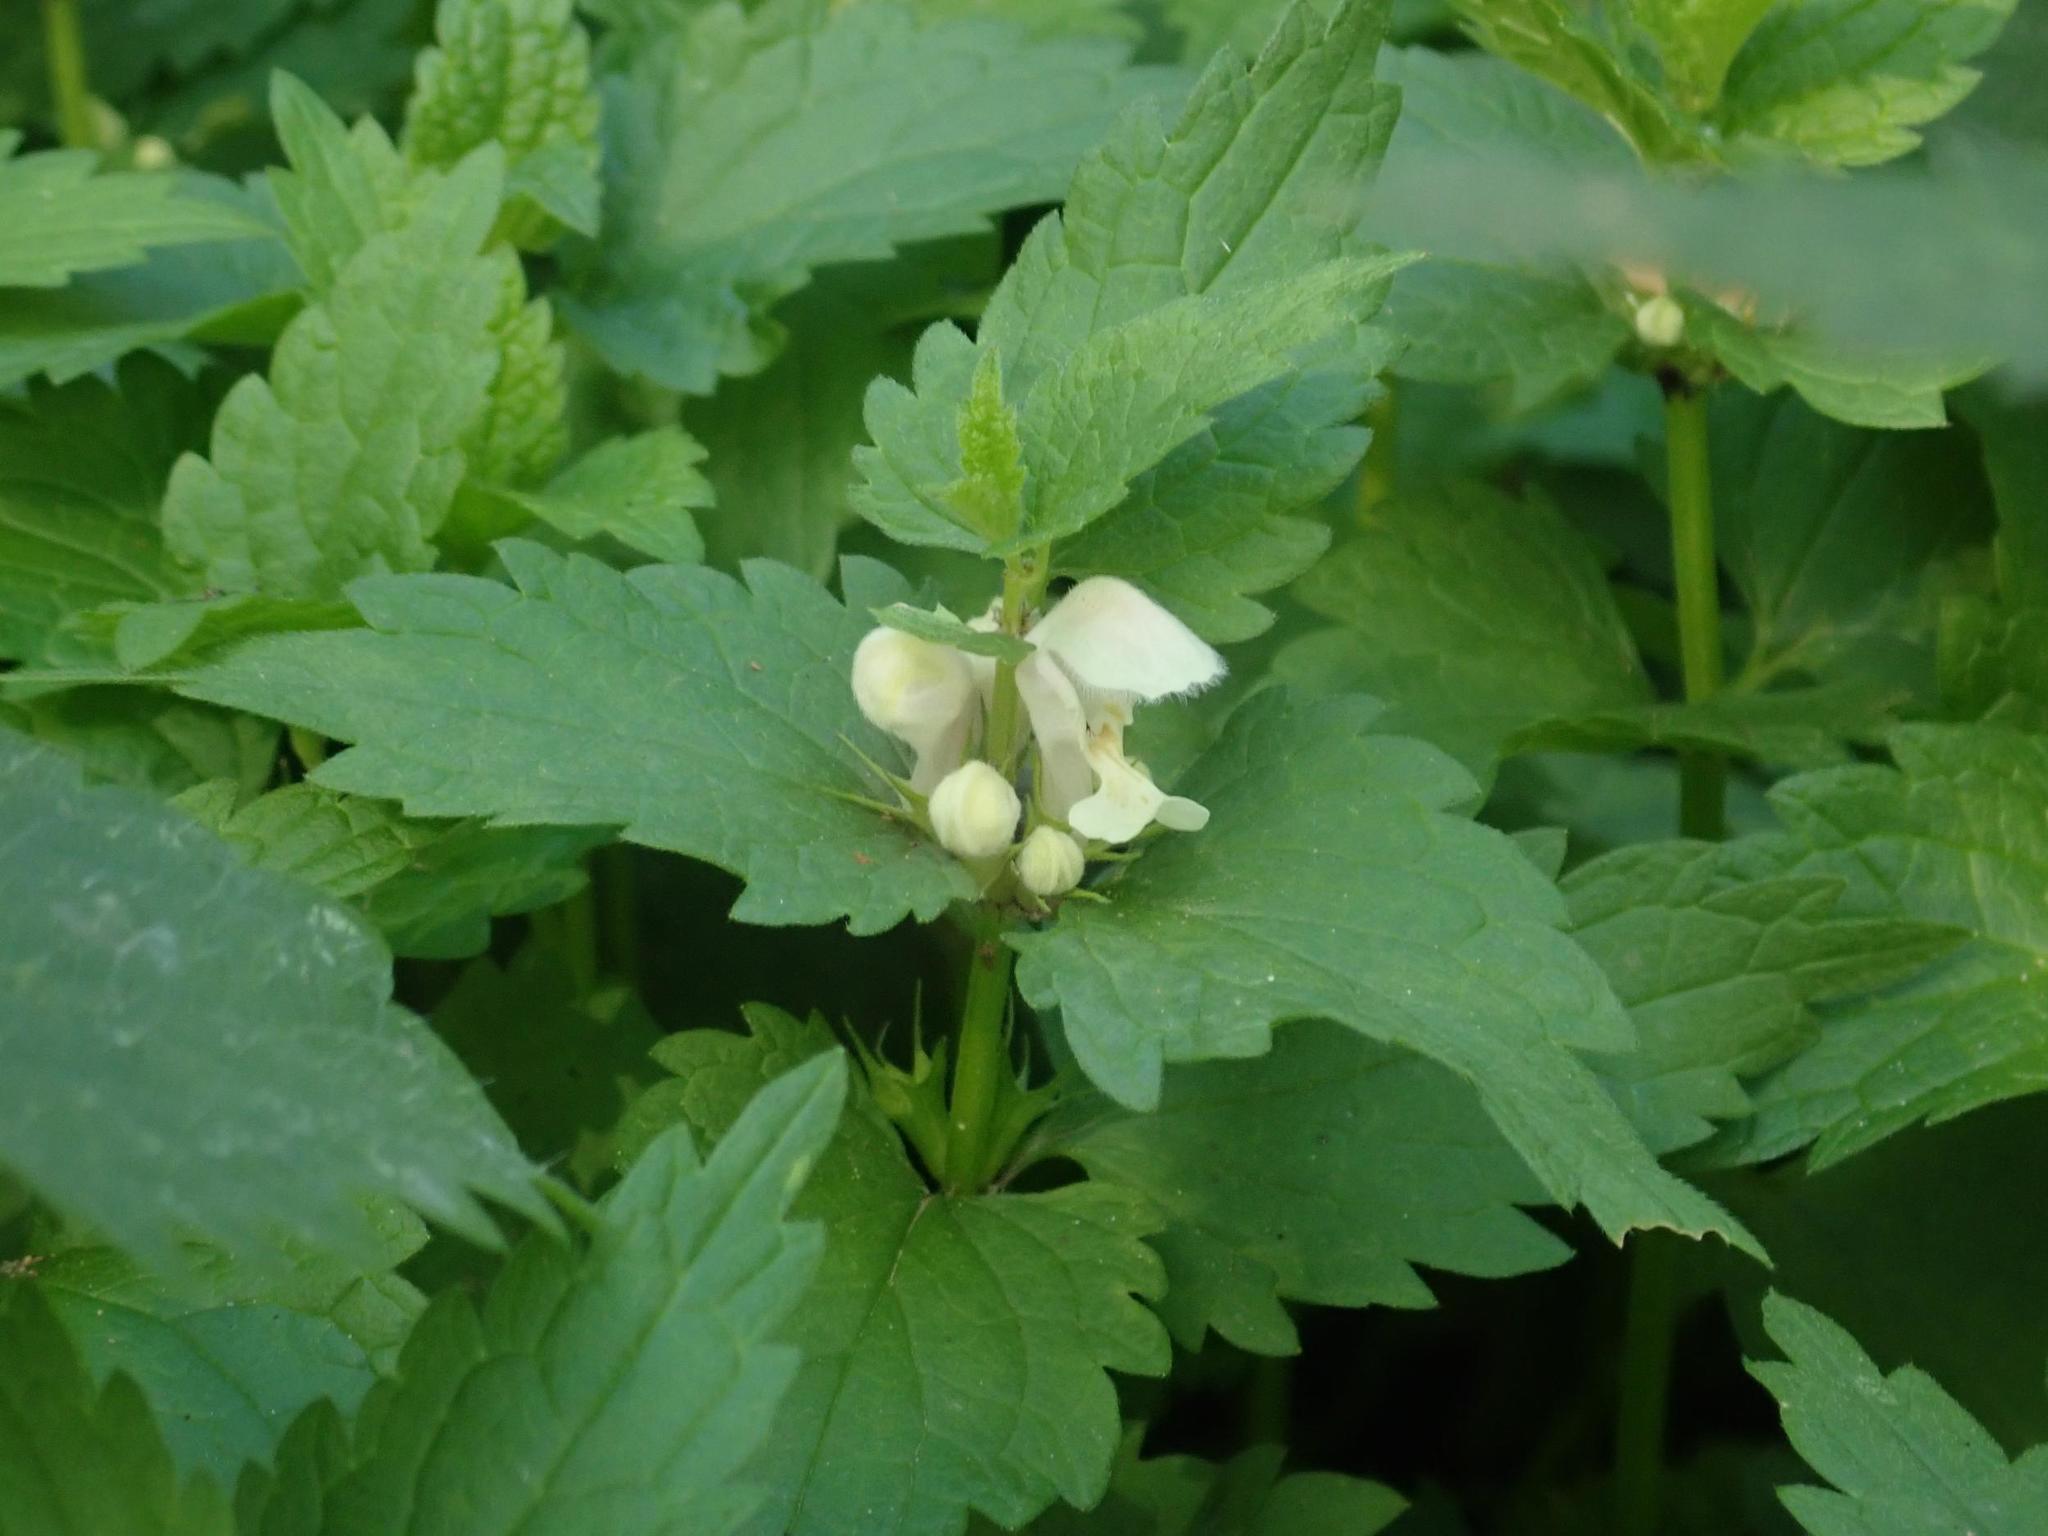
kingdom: Plantae
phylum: Tracheophyta
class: Magnoliopsida
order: Lamiales
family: Lamiaceae
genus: Lamium
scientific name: Lamium album
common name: White dead-nettle
